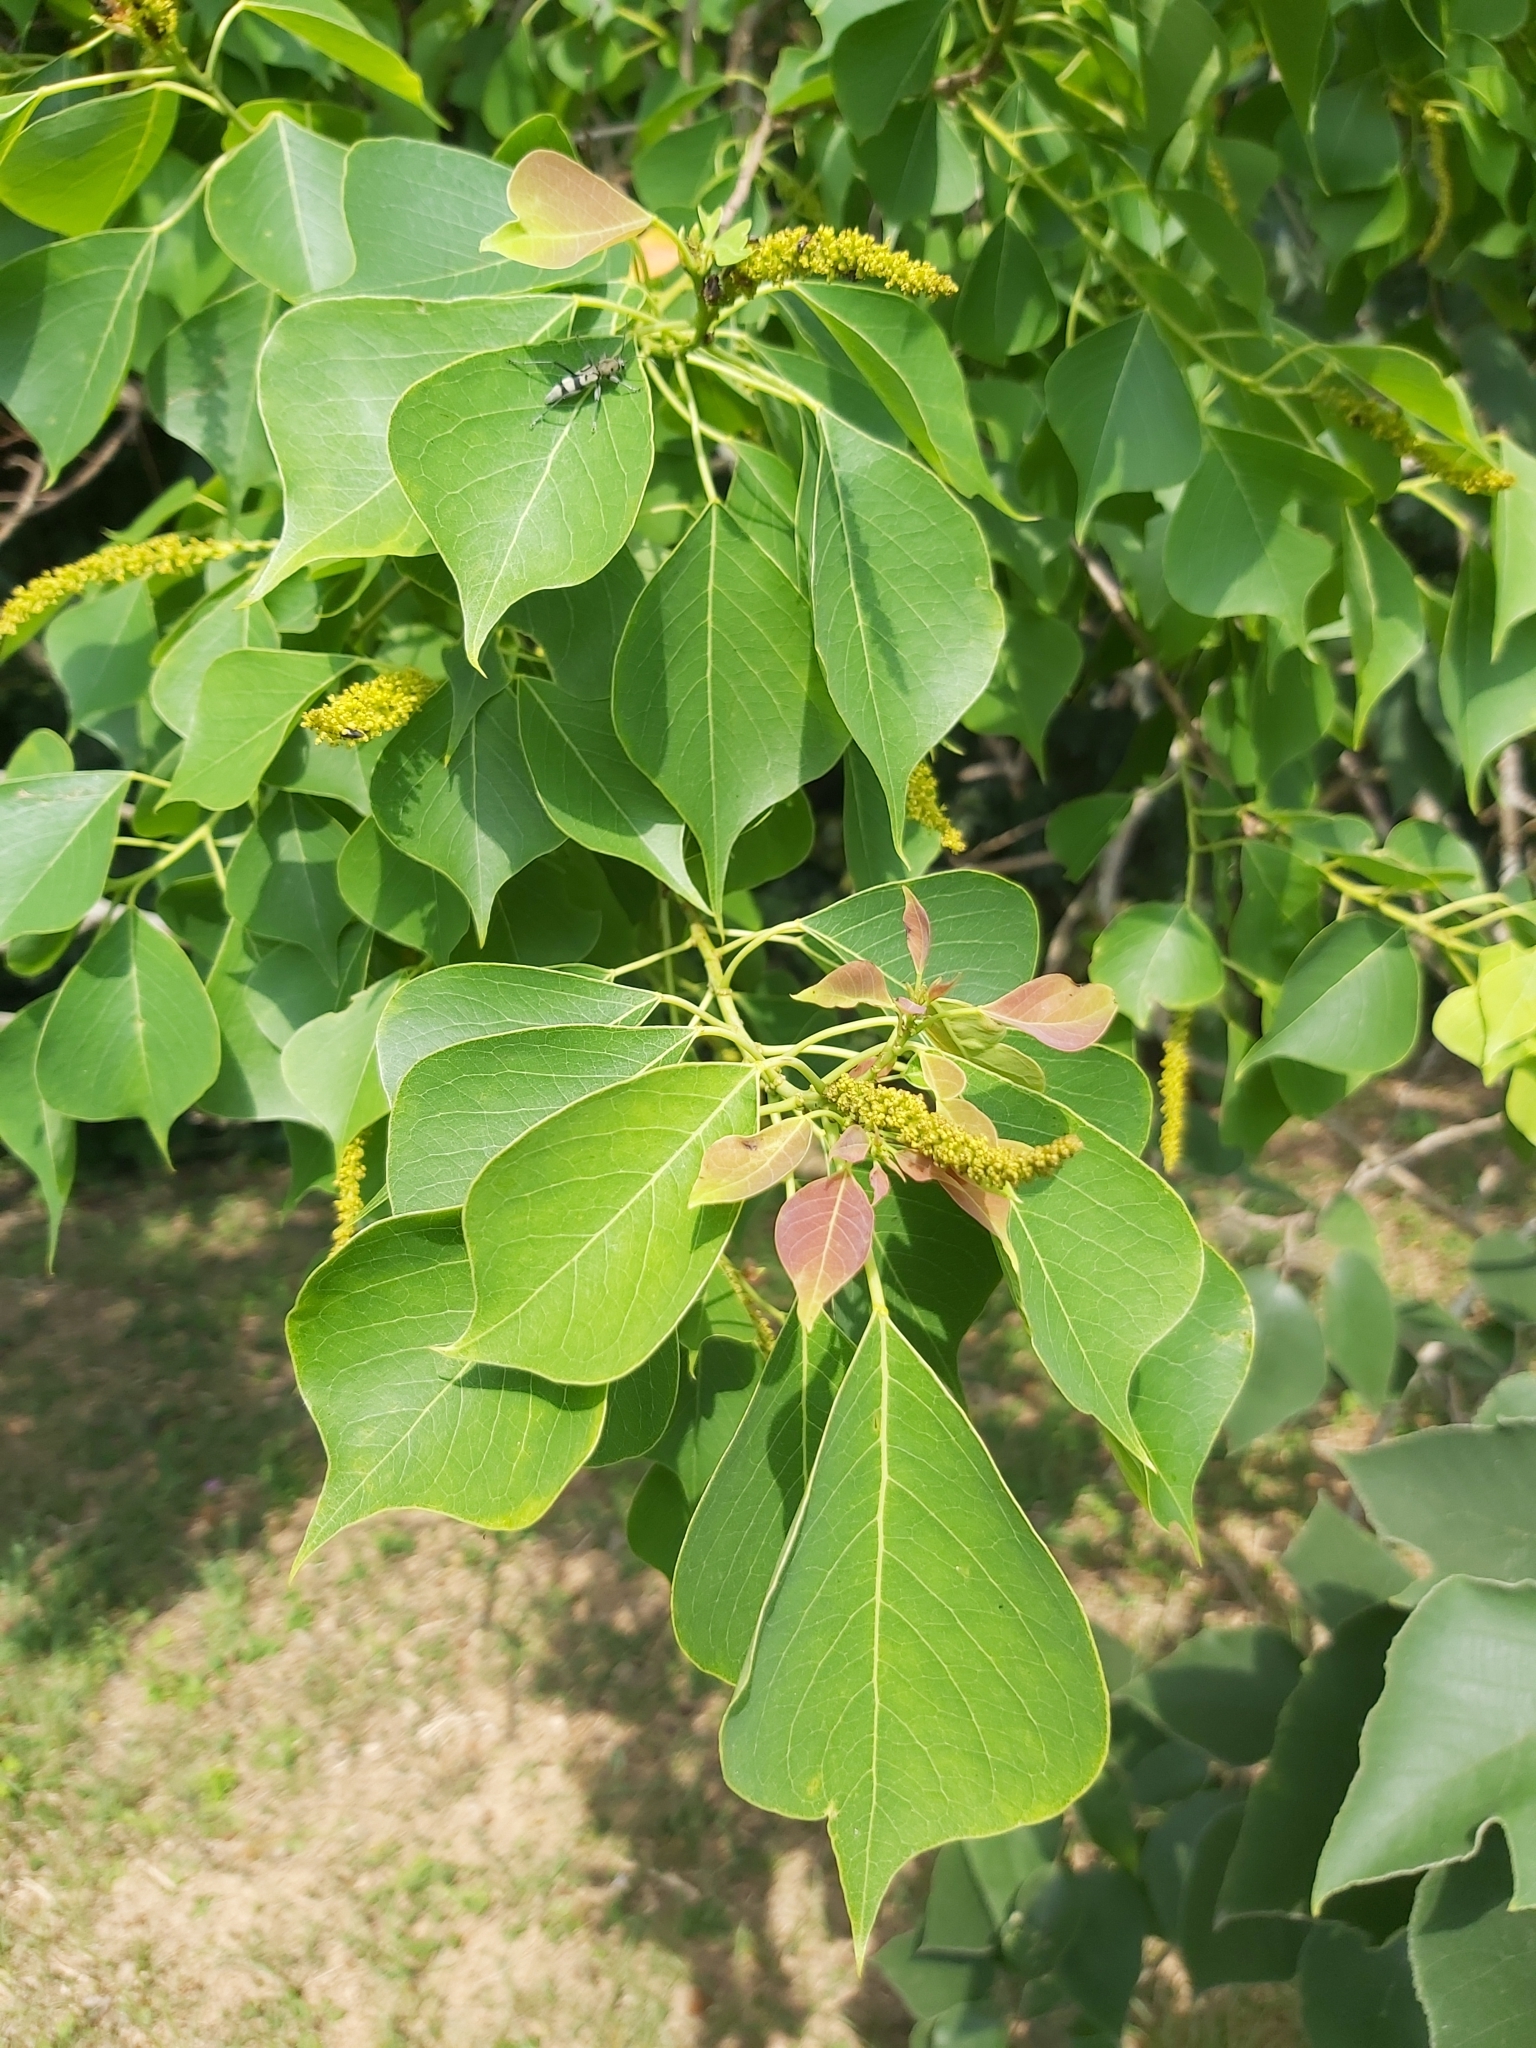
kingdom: Plantae
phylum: Tracheophyta
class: Magnoliopsida
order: Malpighiales
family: Euphorbiaceae
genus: Triadica
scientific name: Triadica sebifera
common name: Chinese tallow
